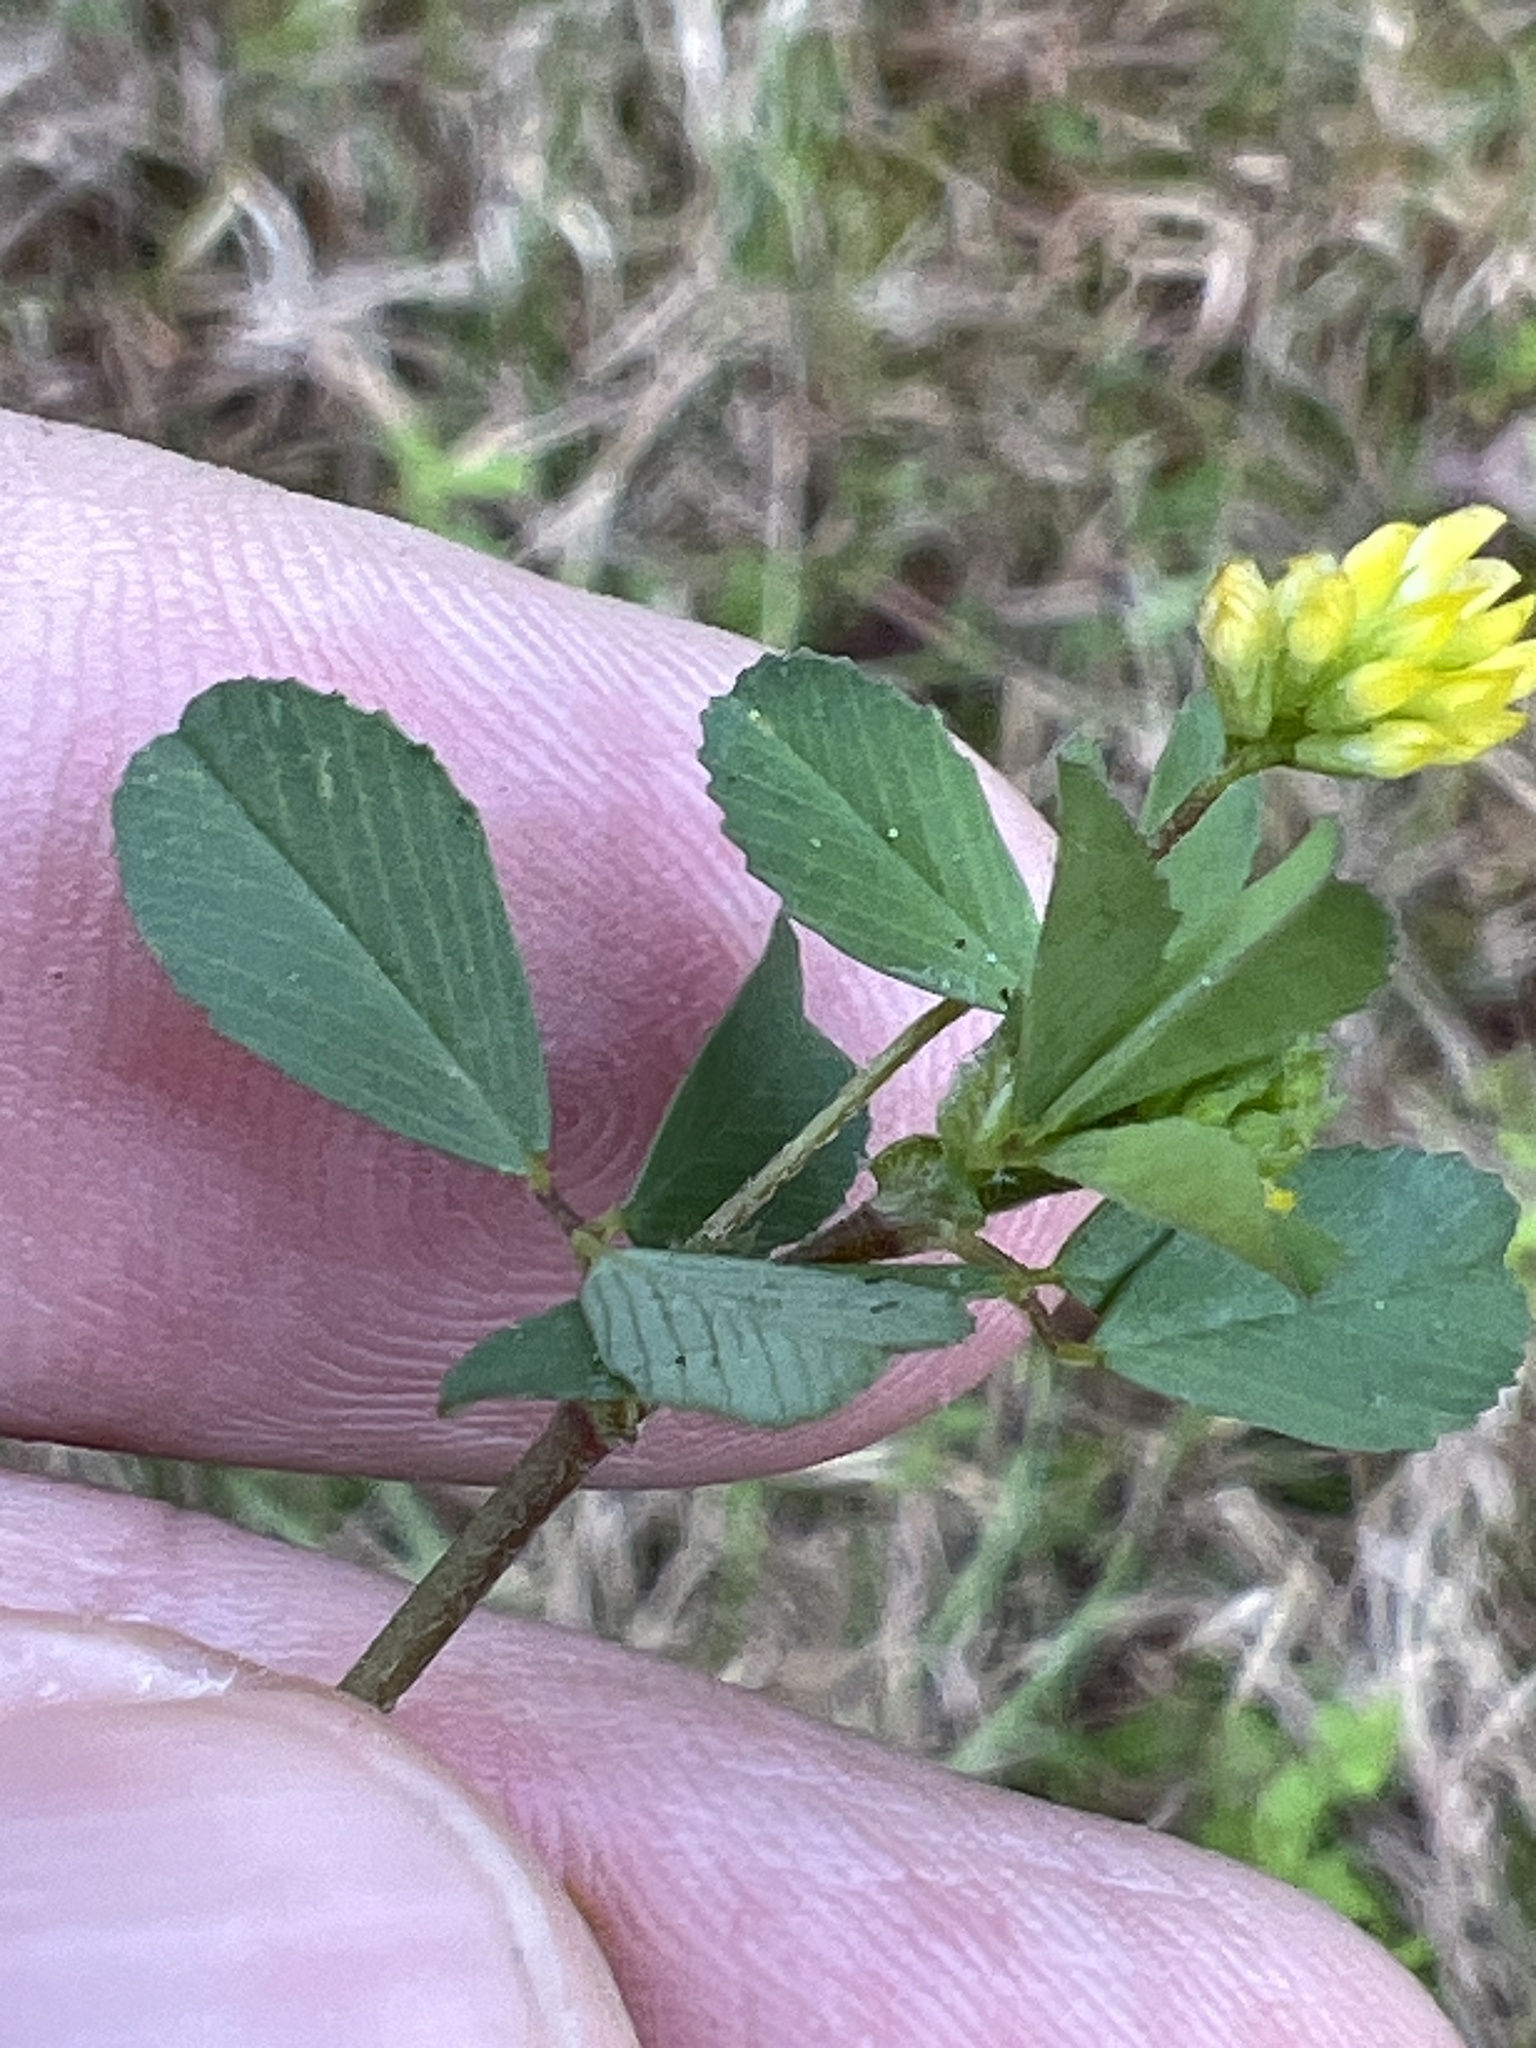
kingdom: Plantae
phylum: Tracheophyta
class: Magnoliopsida
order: Fabales
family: Fabaceae
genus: Trifolium
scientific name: Trifolium dubium
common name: Suckling clover
